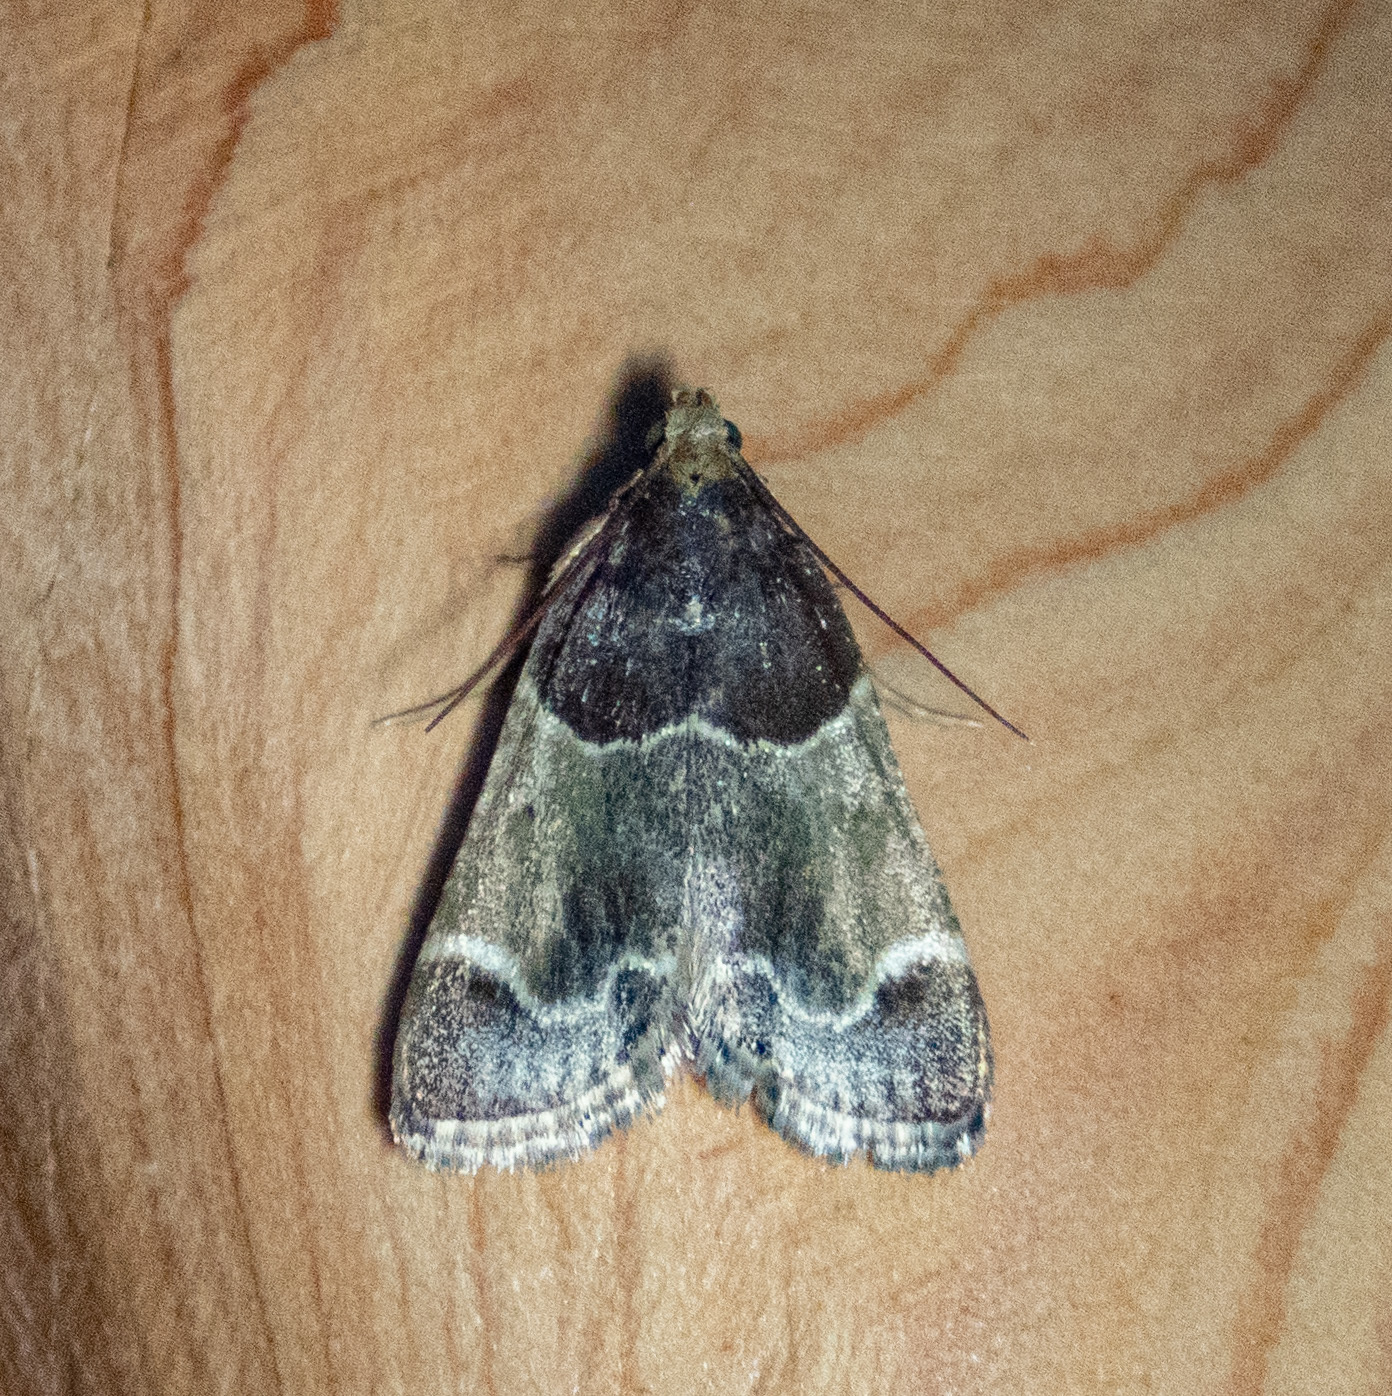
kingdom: Animalia
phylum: Arthropoda
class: Insecta
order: Lepidoptera
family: Pyralidae
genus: Pyralis
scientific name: Pyralis farinalis
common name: Meal moth
